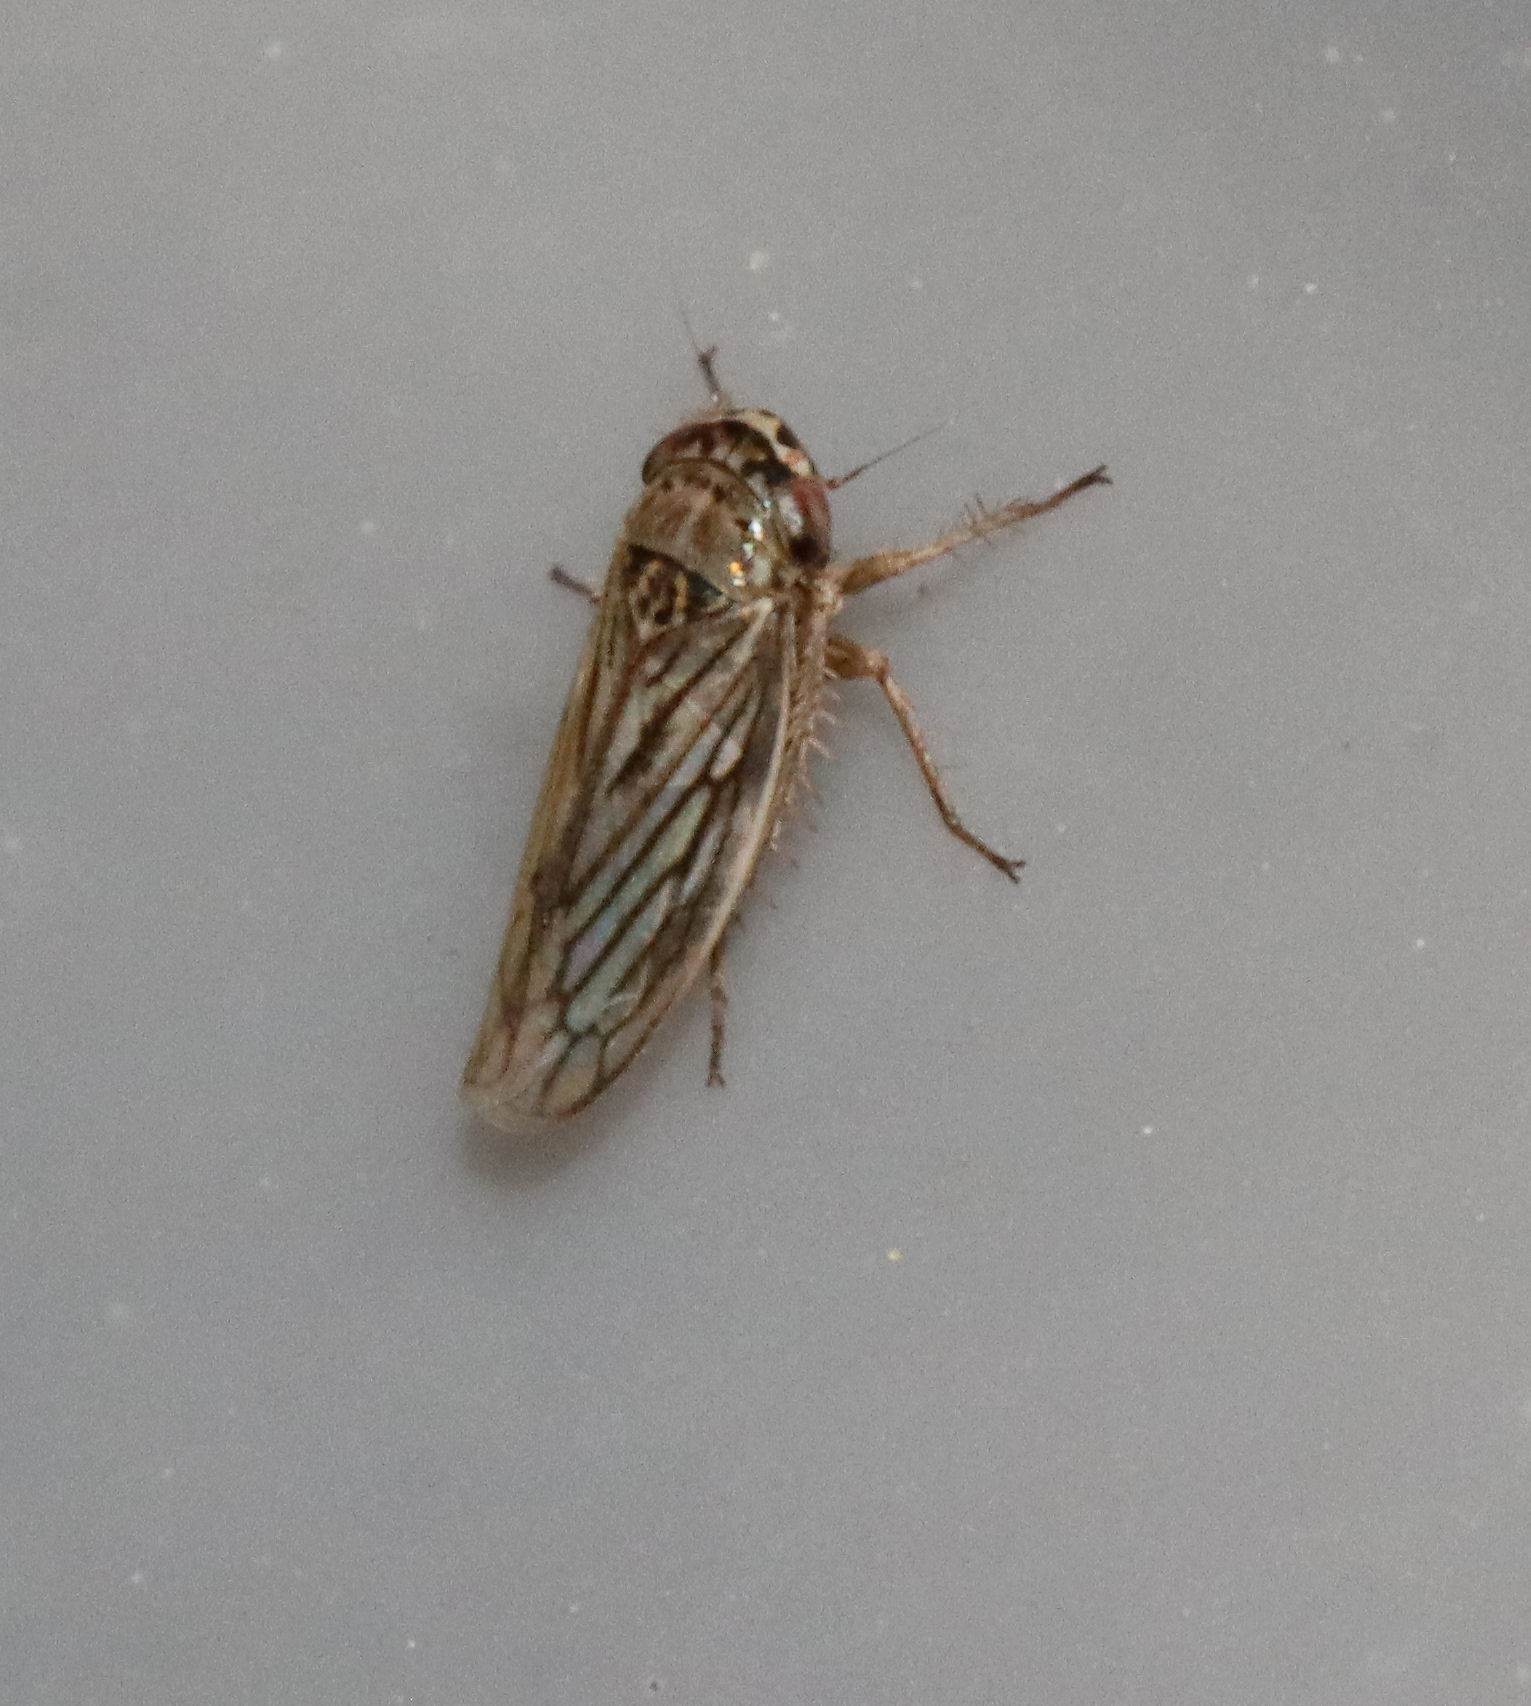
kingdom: Animalia
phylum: Arthropoda
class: Insecta
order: Hemiptera
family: Cicadellidae
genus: Exitianus
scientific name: Exitianus exitiosus
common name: Gray lawn leafhopper
